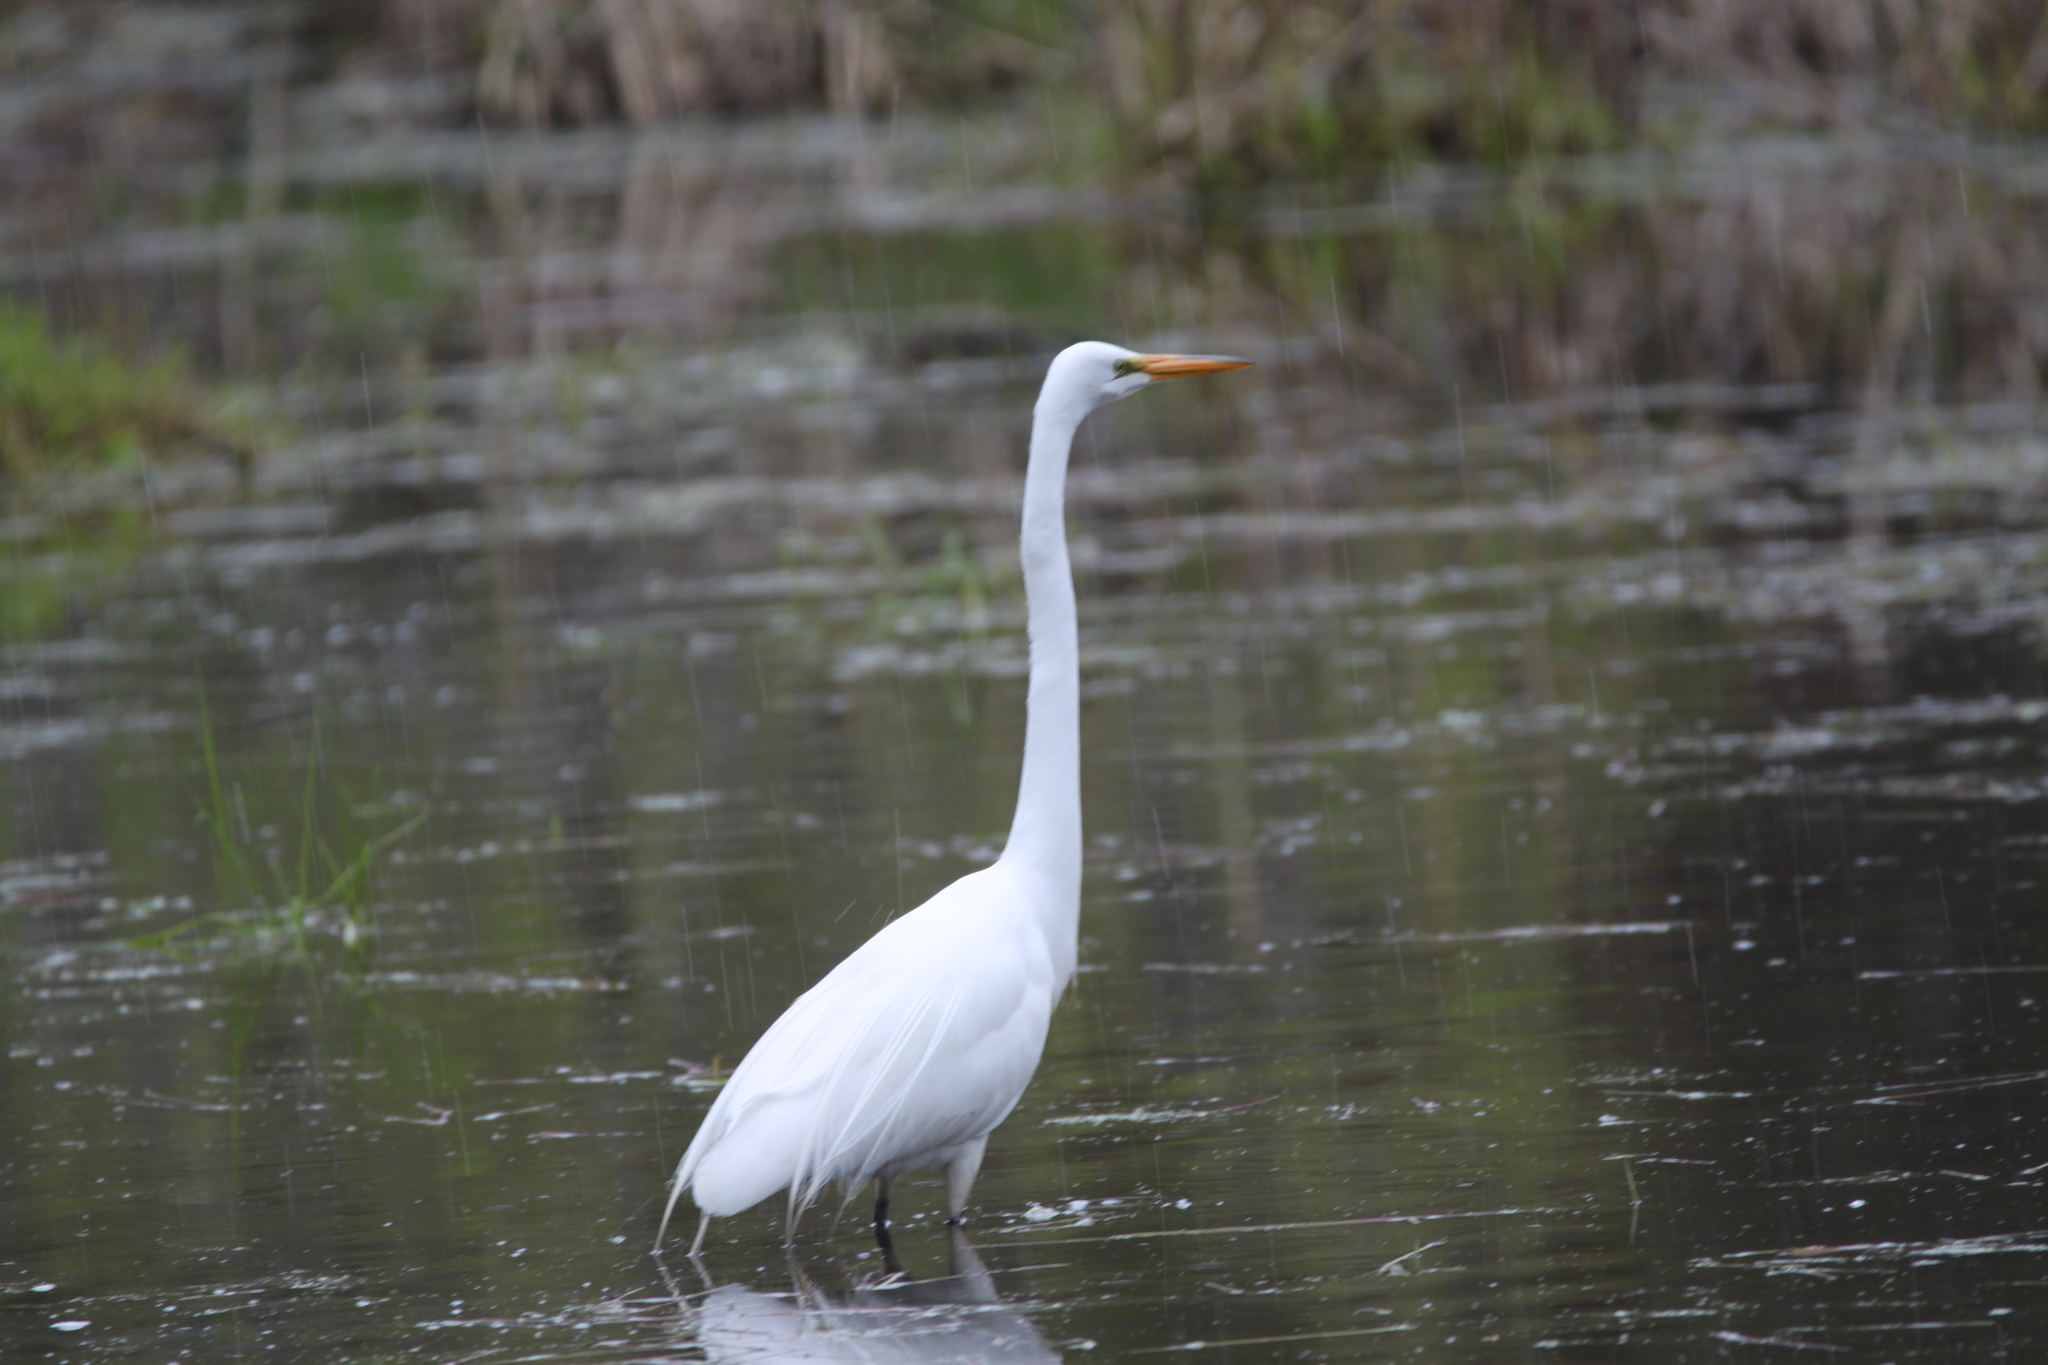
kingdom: Animalia
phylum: Chordata
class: Aves
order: Pelecaniformes
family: Ardeidae
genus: Ardea
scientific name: Ardea alba
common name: Great egret
